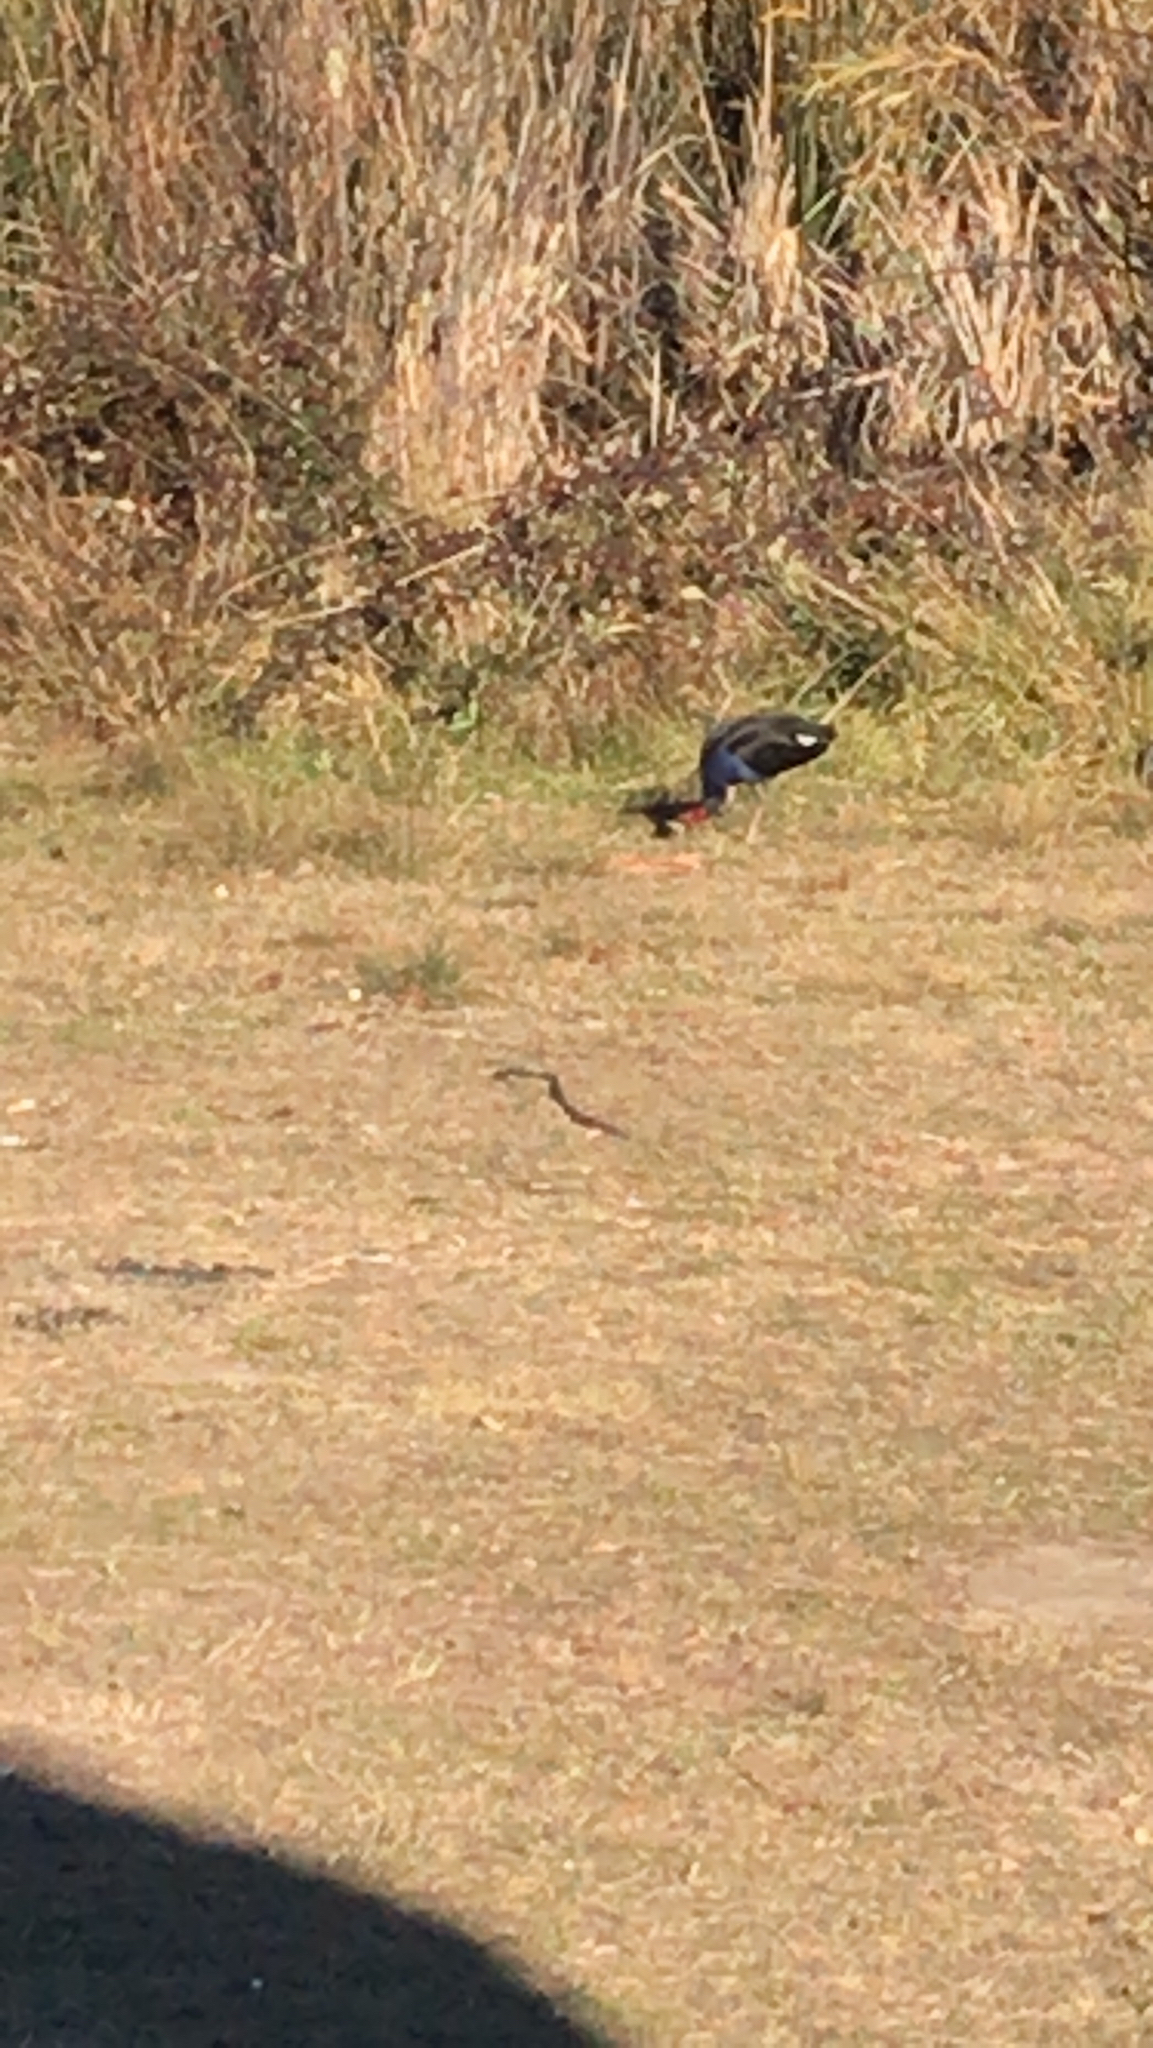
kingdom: Animalia
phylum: Chordata
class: Aves
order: Gruiformes
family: Rallidae
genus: Porphyrio
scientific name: Porphyrio melanotus
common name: Australasian swamphen
